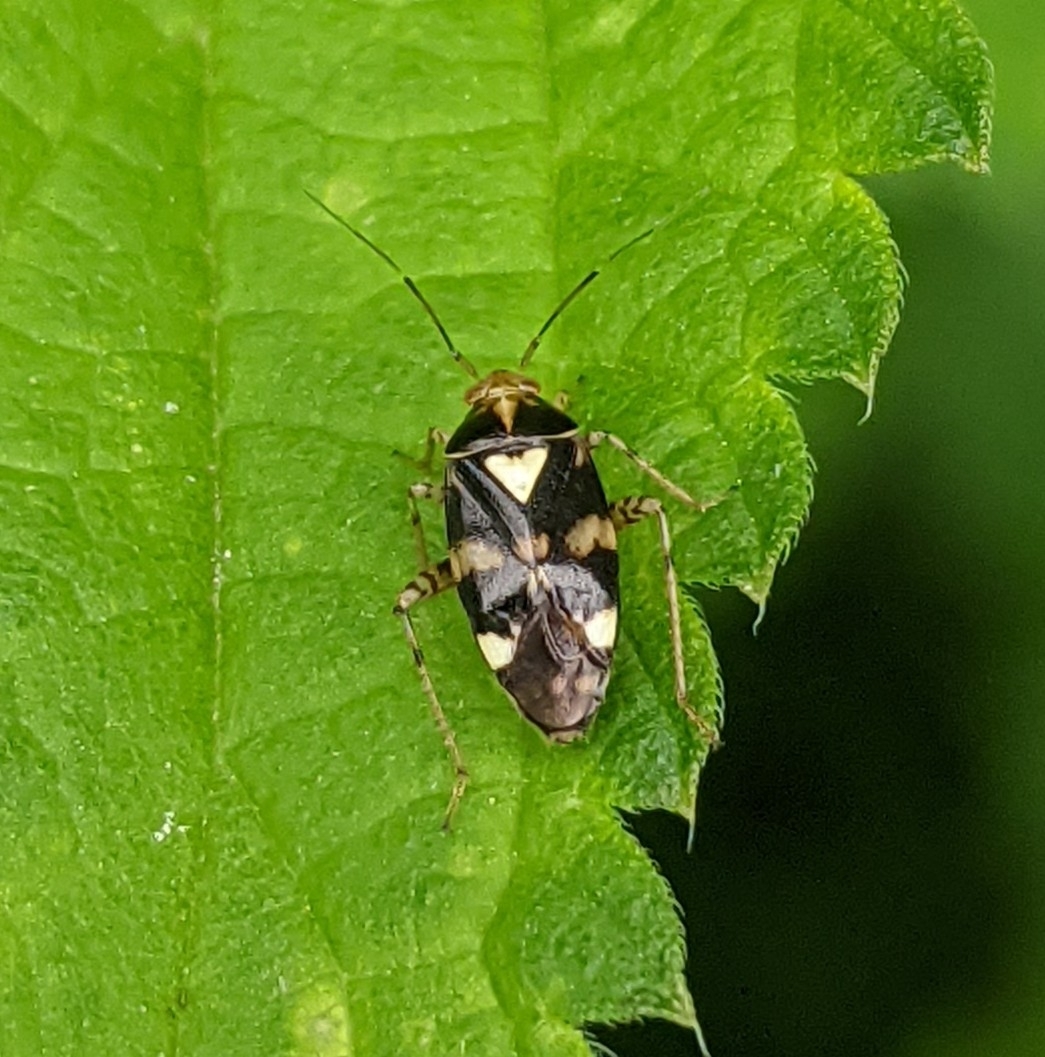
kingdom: Animalia
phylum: Arthropoda
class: Insecta
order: Hemiptera
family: Miridae
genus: Liocoris
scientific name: Liocoris tripustulatus
